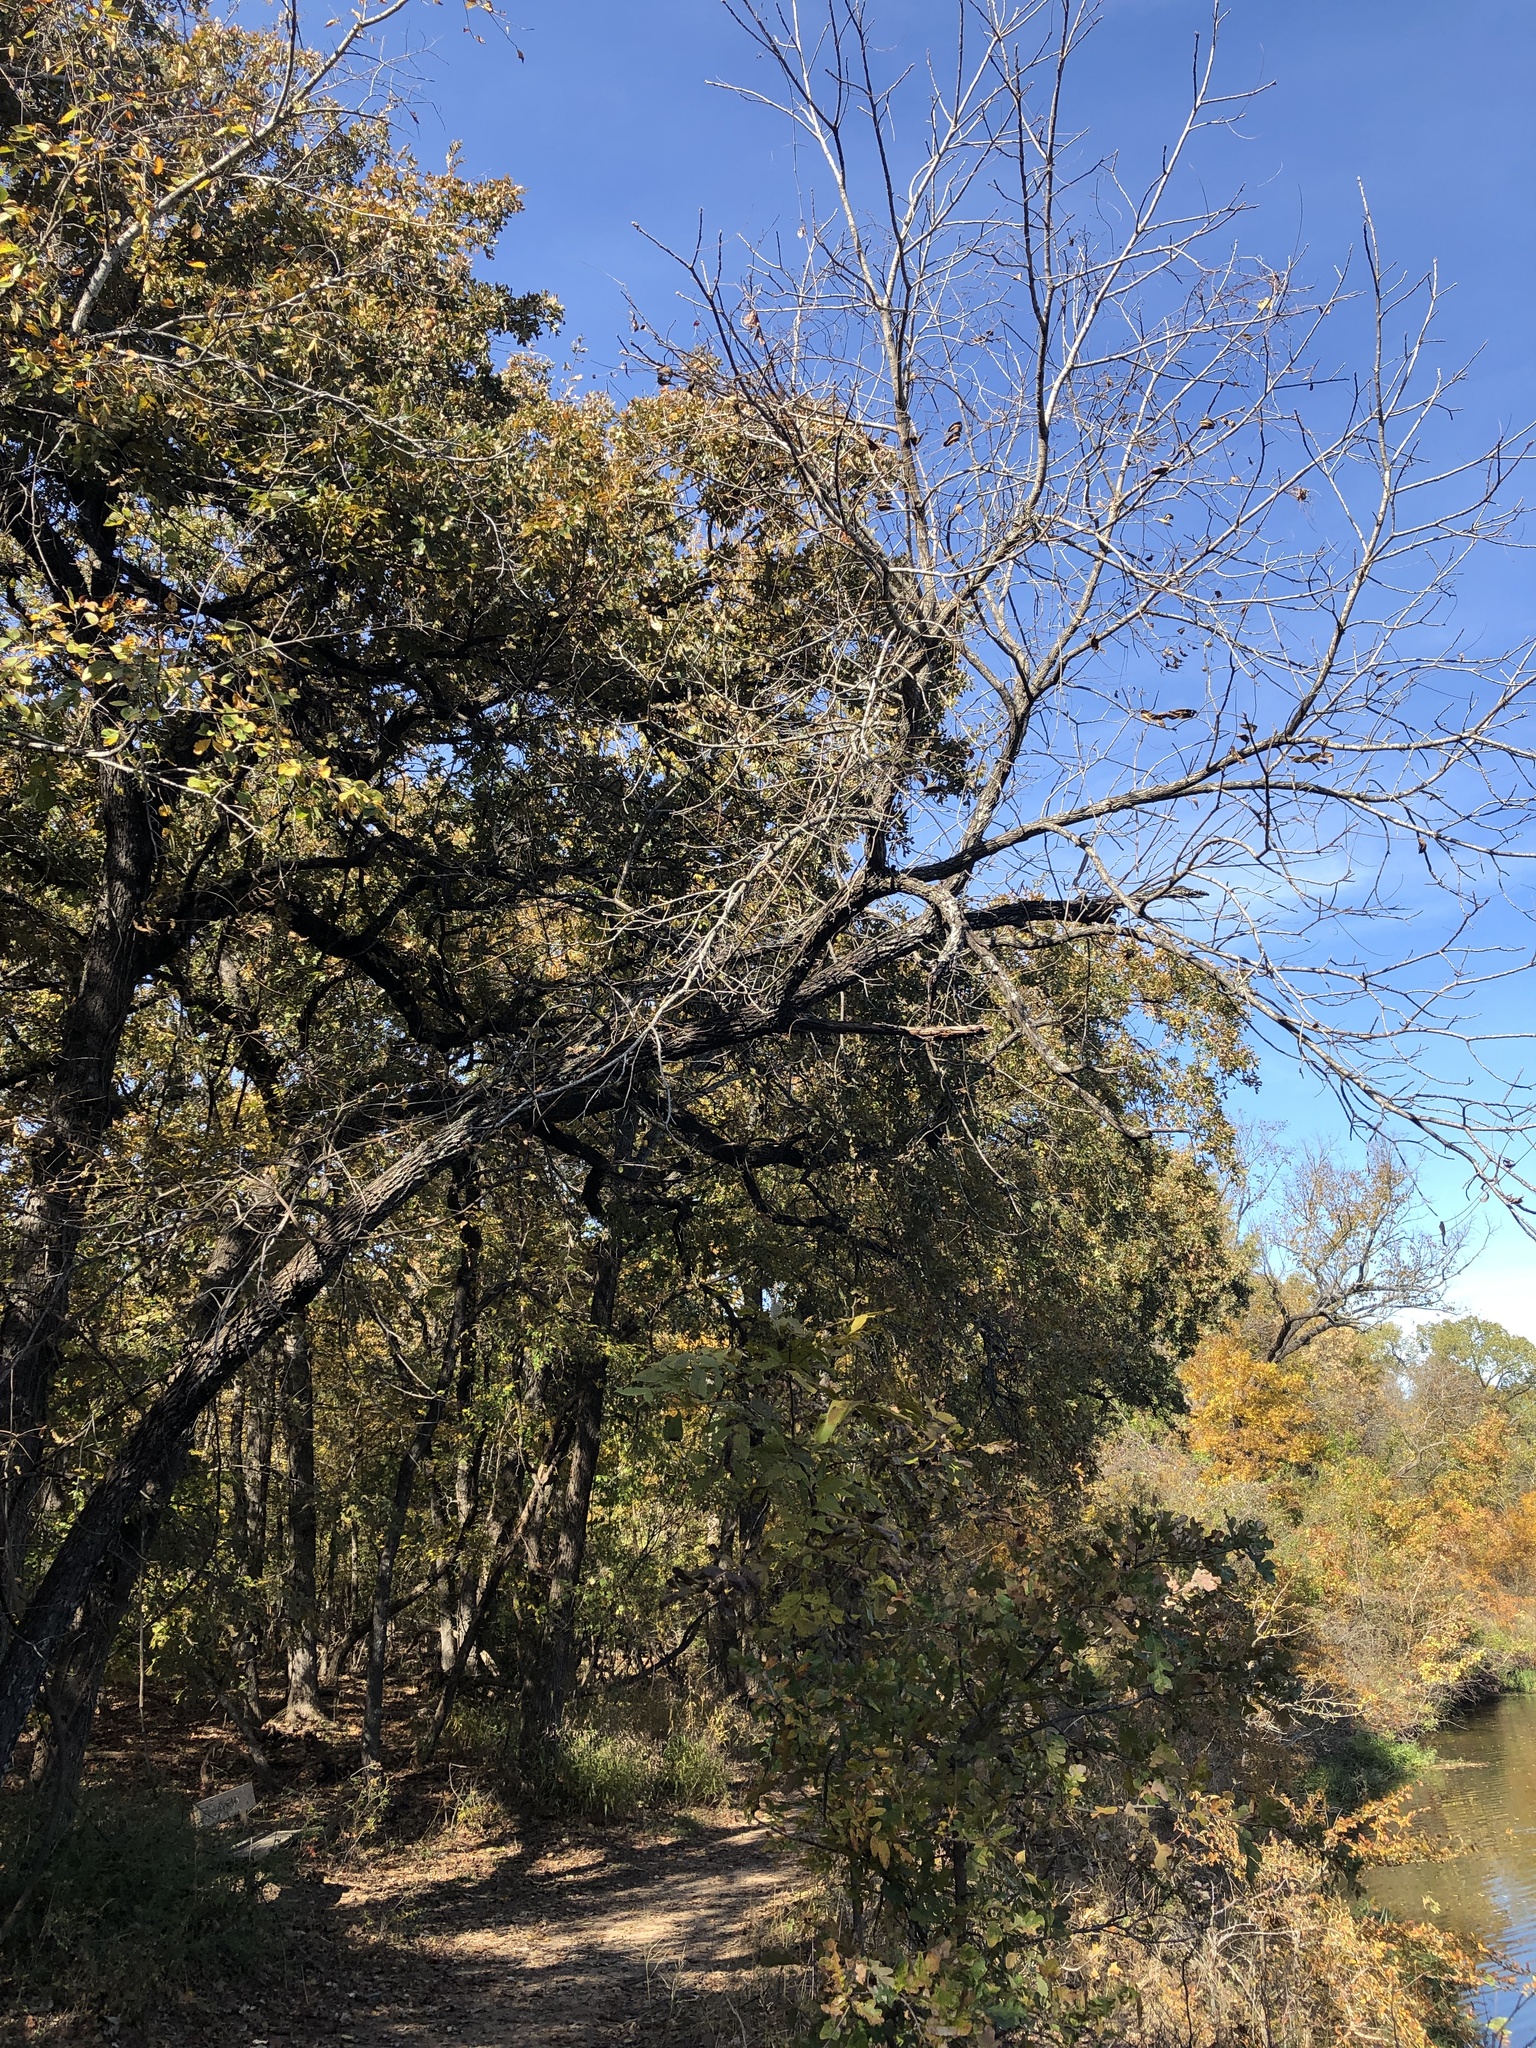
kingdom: Plantae
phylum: Tracheophyta
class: Magnoliopsida
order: Fagales
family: Juglandaceae
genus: Juglans
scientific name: Juglans nigra
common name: Black walnut
